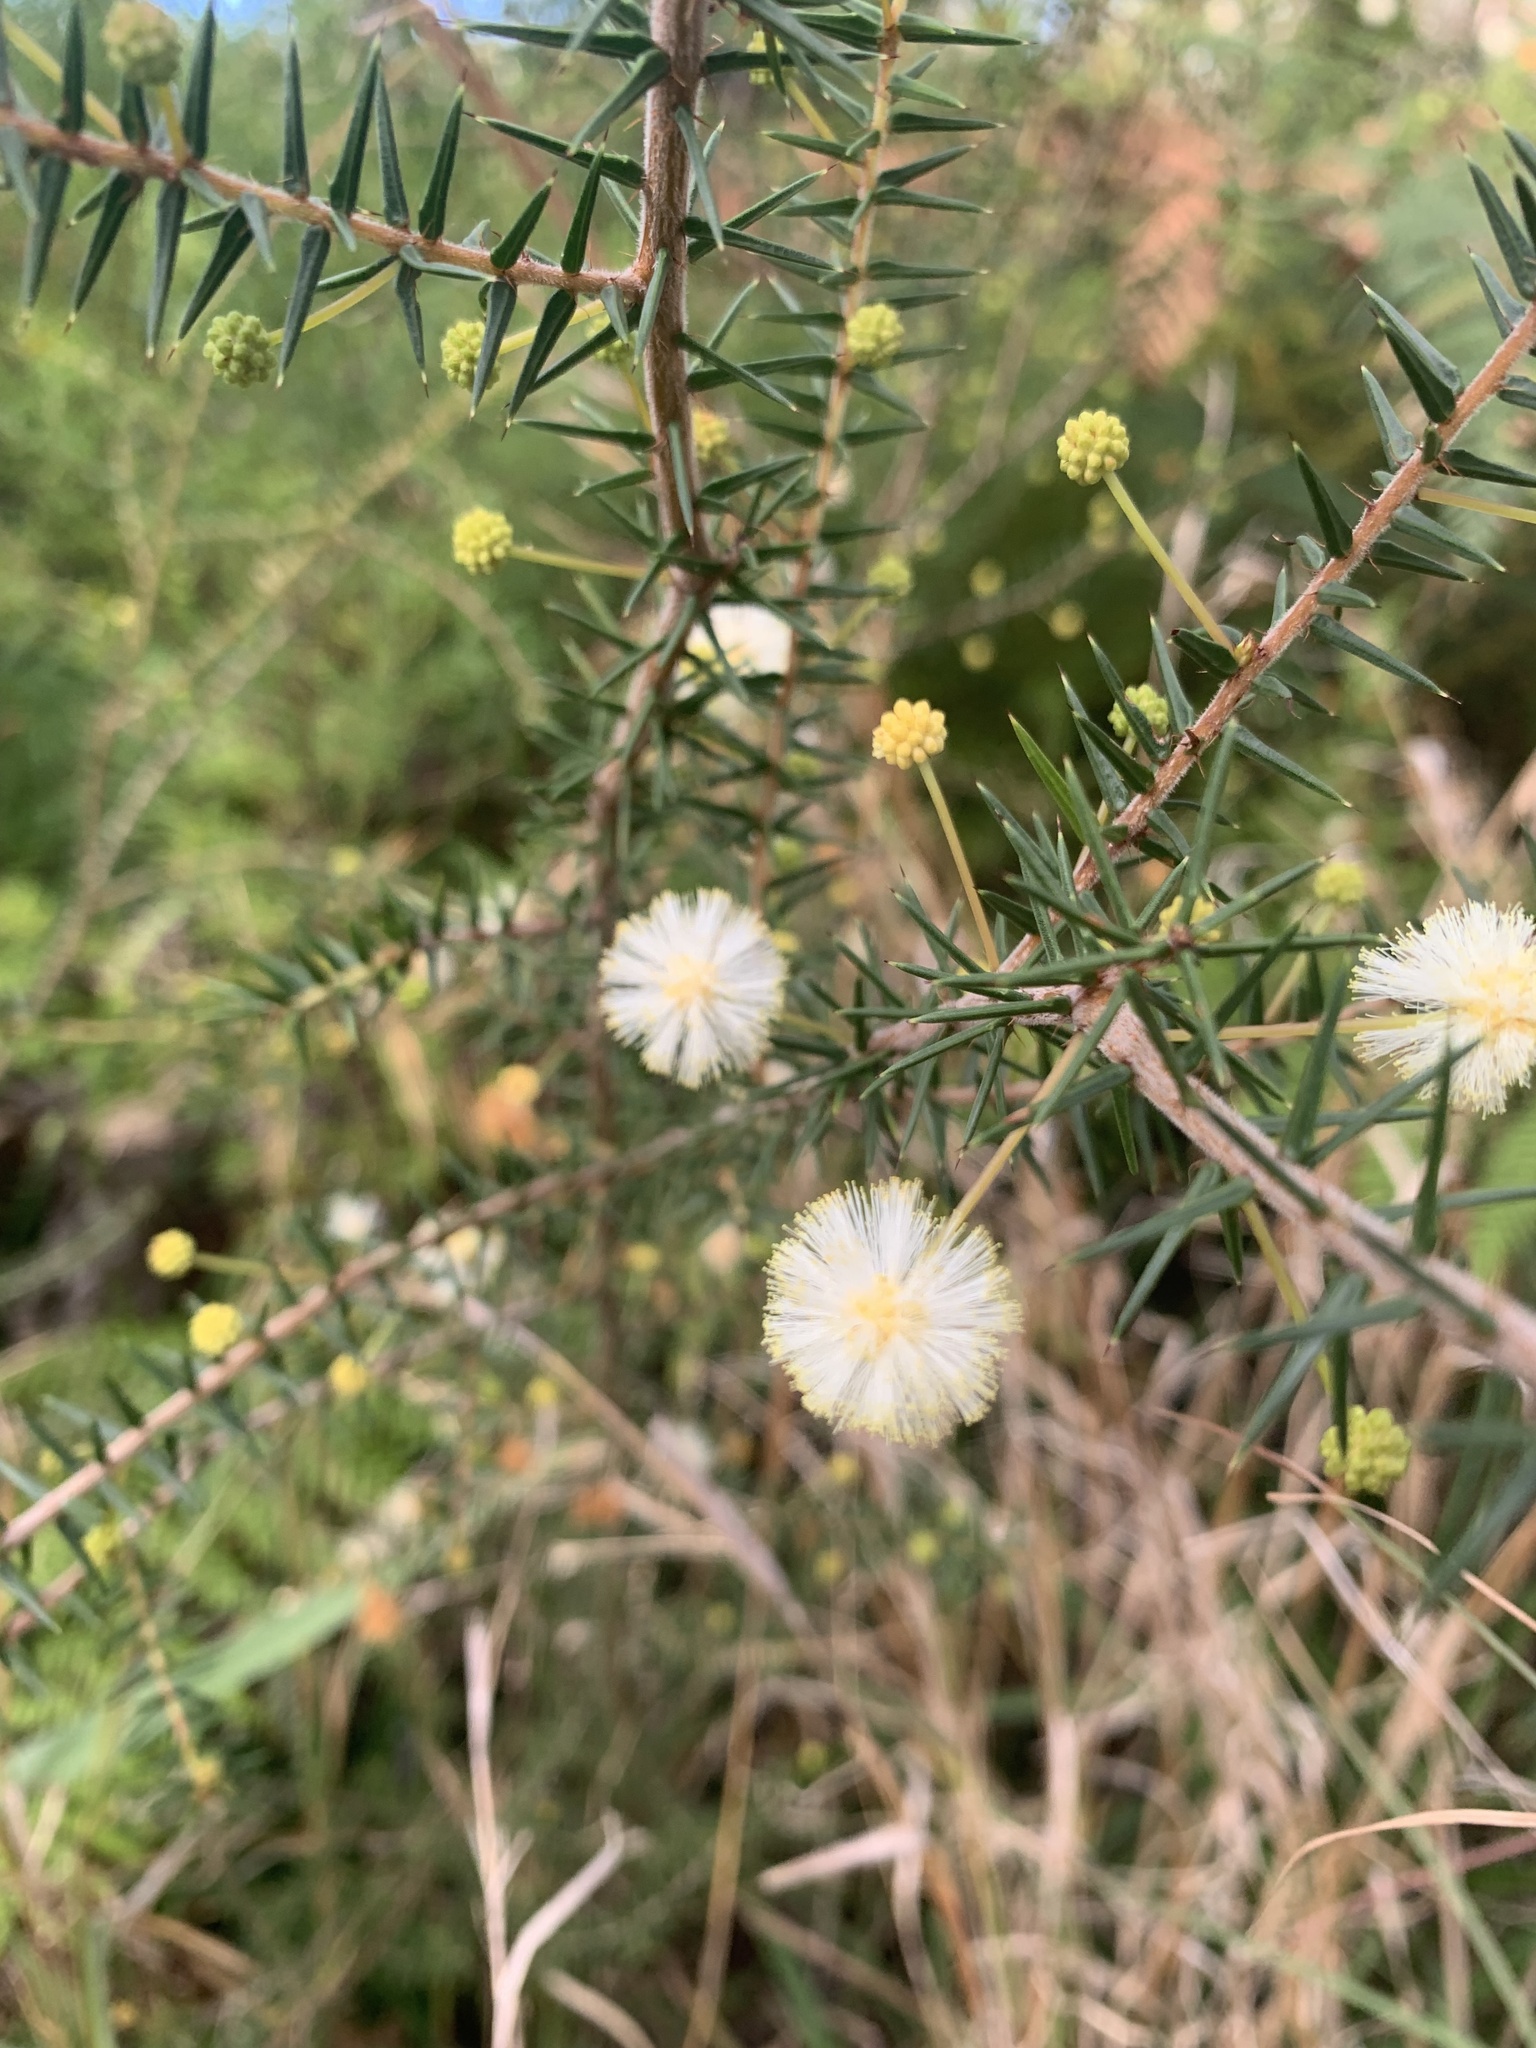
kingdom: Plantae
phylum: Tracheophyta
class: Magnoliopsida
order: Fabales
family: Fabaceae
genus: Acacia
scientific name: Acacia ulicifolia
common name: Juniper wattle
